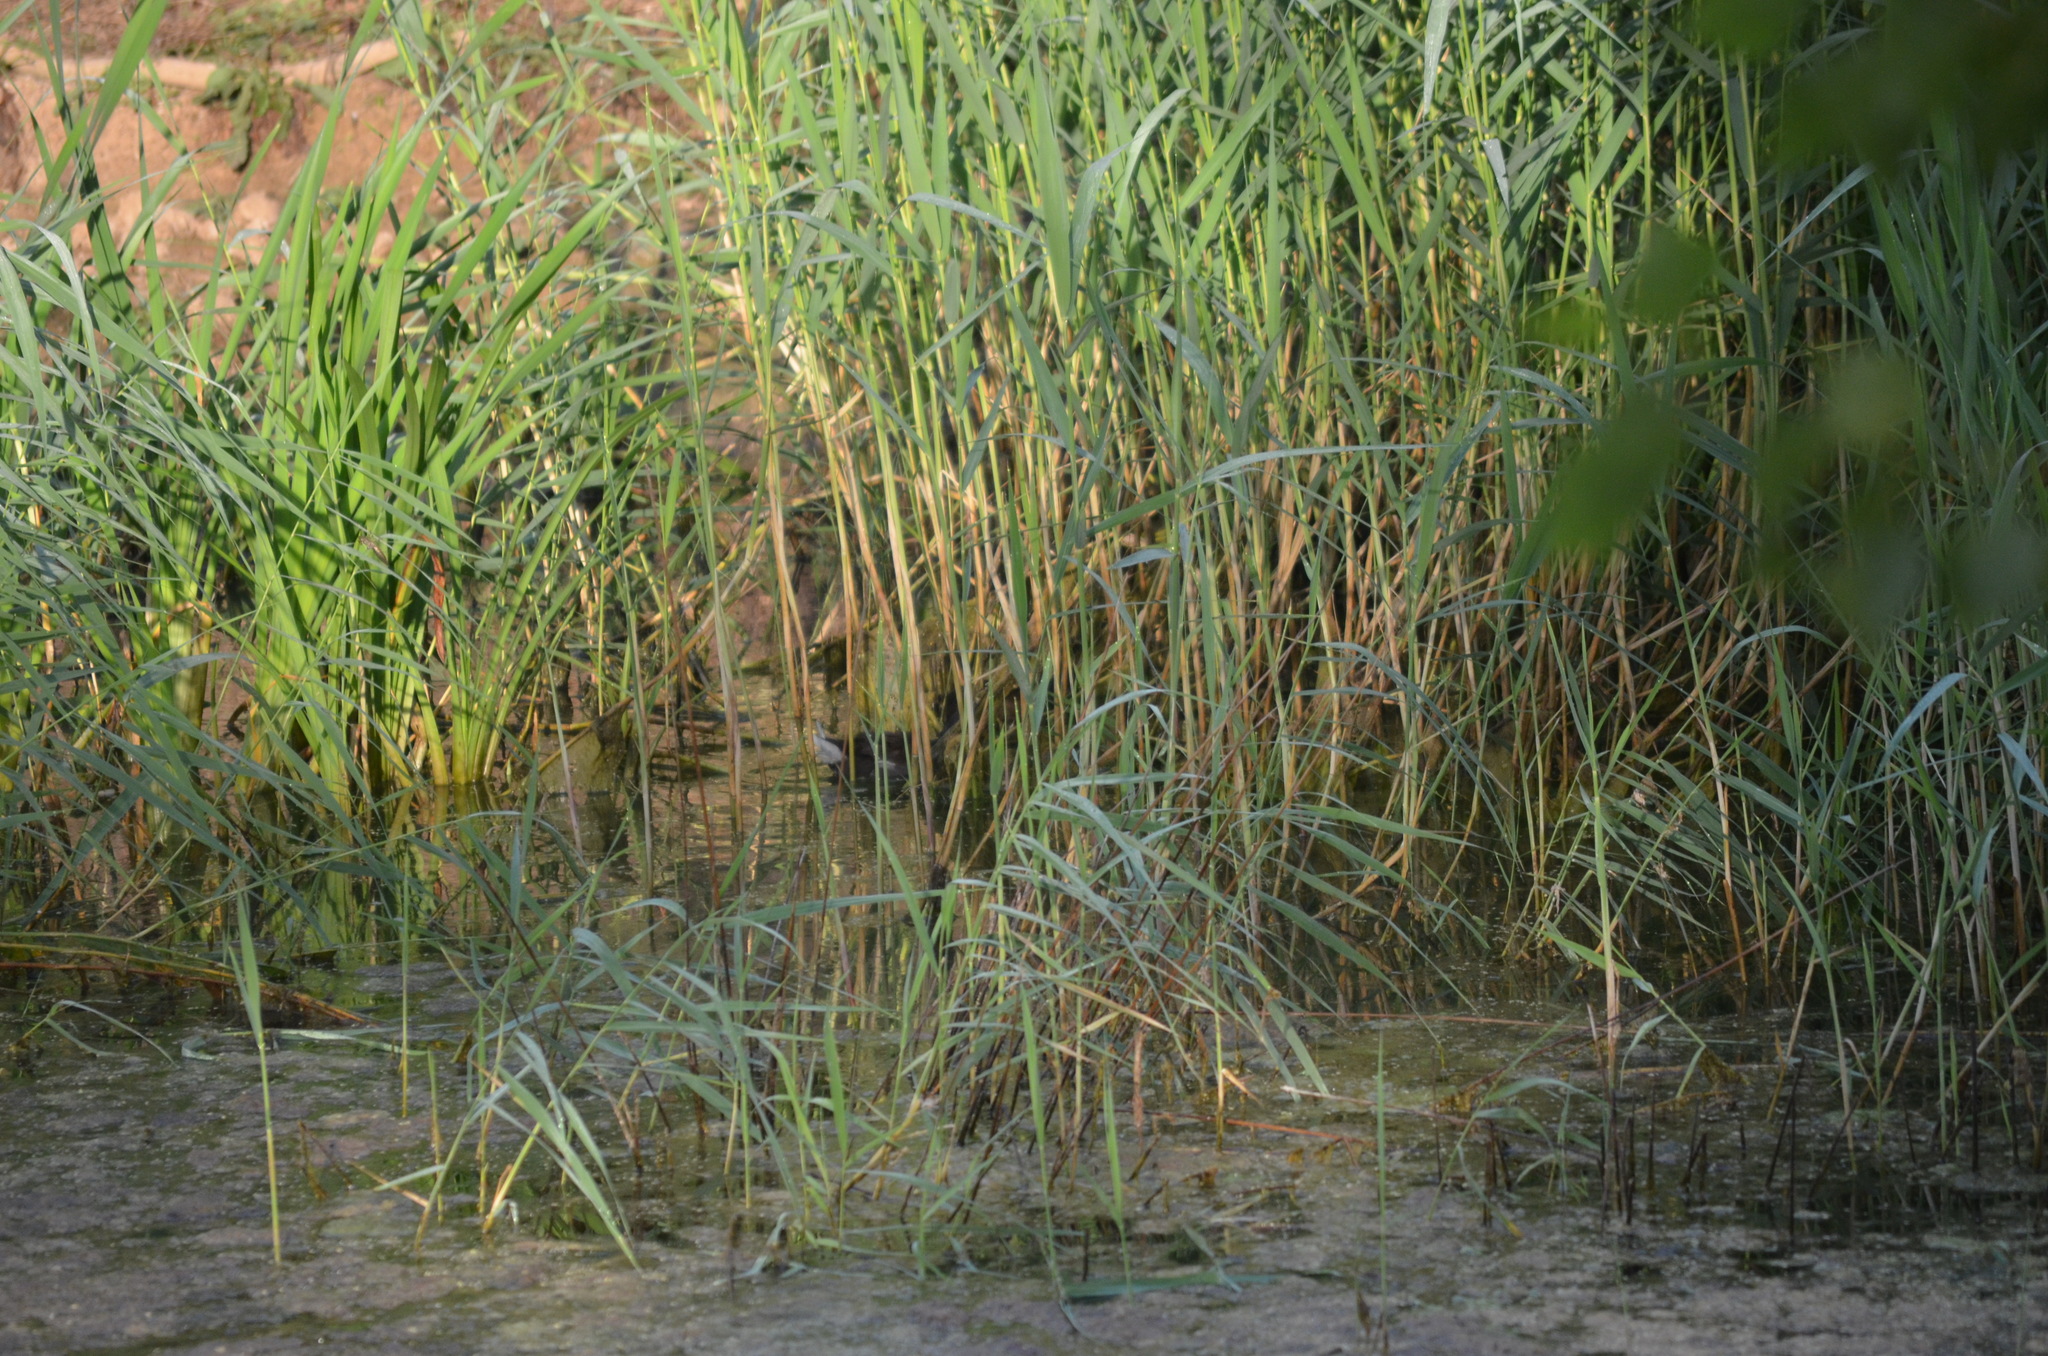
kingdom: Animalia
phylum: Chordata
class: Aves
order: Gruiformes
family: Rallidae
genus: Gallinula
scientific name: Gallinula chloropus
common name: Common moorhen
